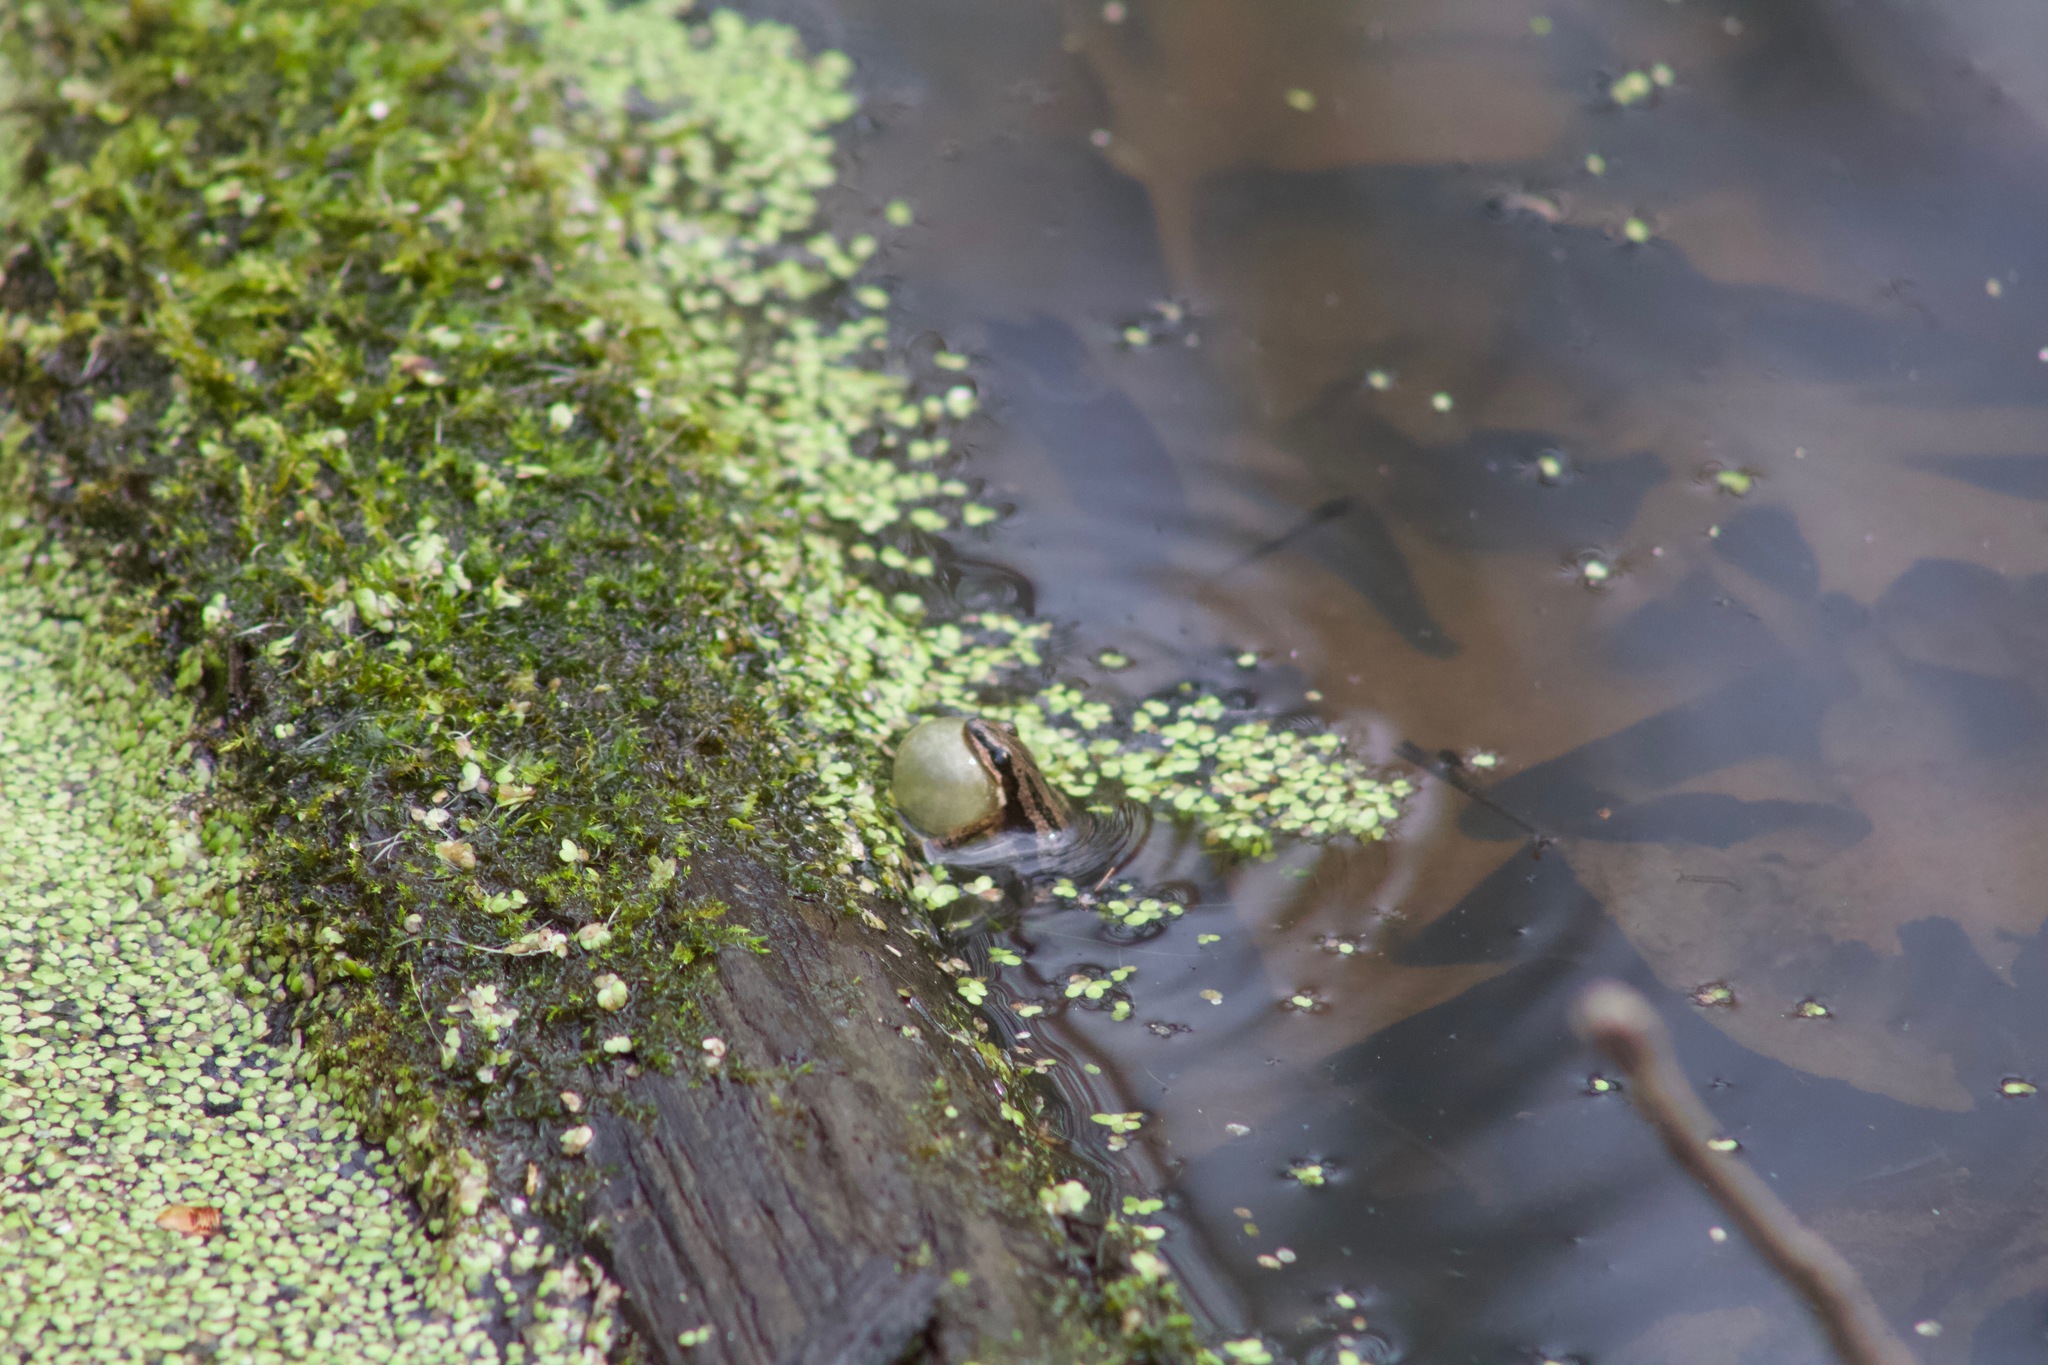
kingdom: Animalia
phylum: Chordata
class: Amphibia
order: Anura
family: Hylidae
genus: Pseudacris
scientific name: Pseudacris maculata
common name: Boreal chorus frog
